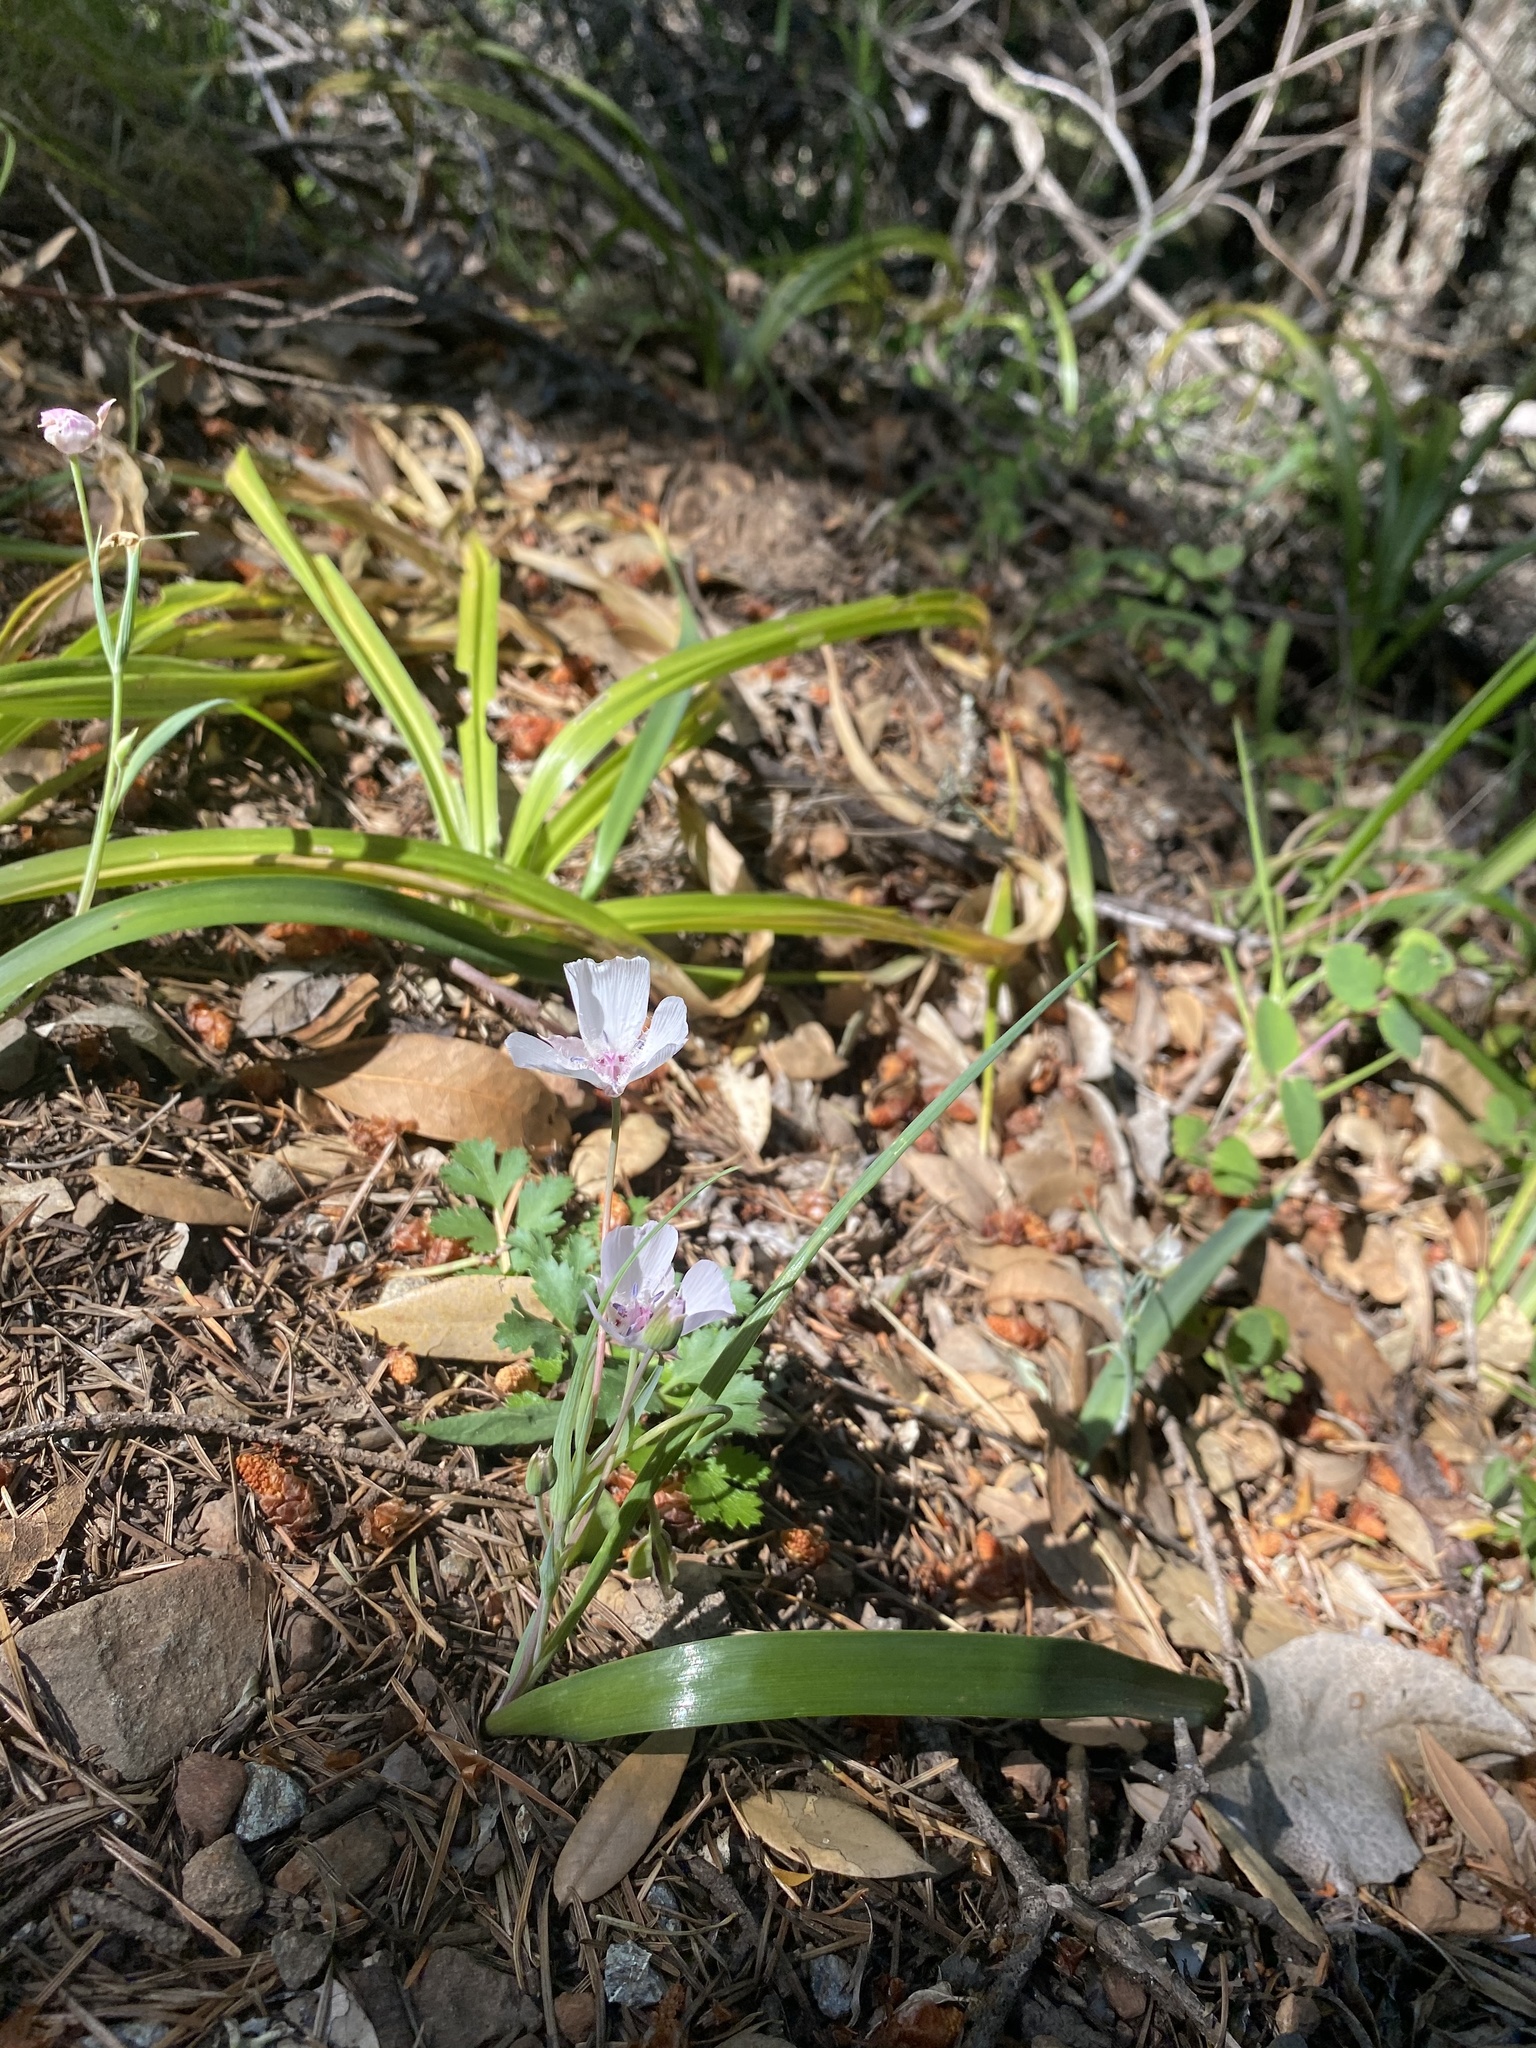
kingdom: Plantae
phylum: Tracheophyta
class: Liliopsida
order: Liliales
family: Liliaceae
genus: Calochortus
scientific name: Calochortus umbellatus
